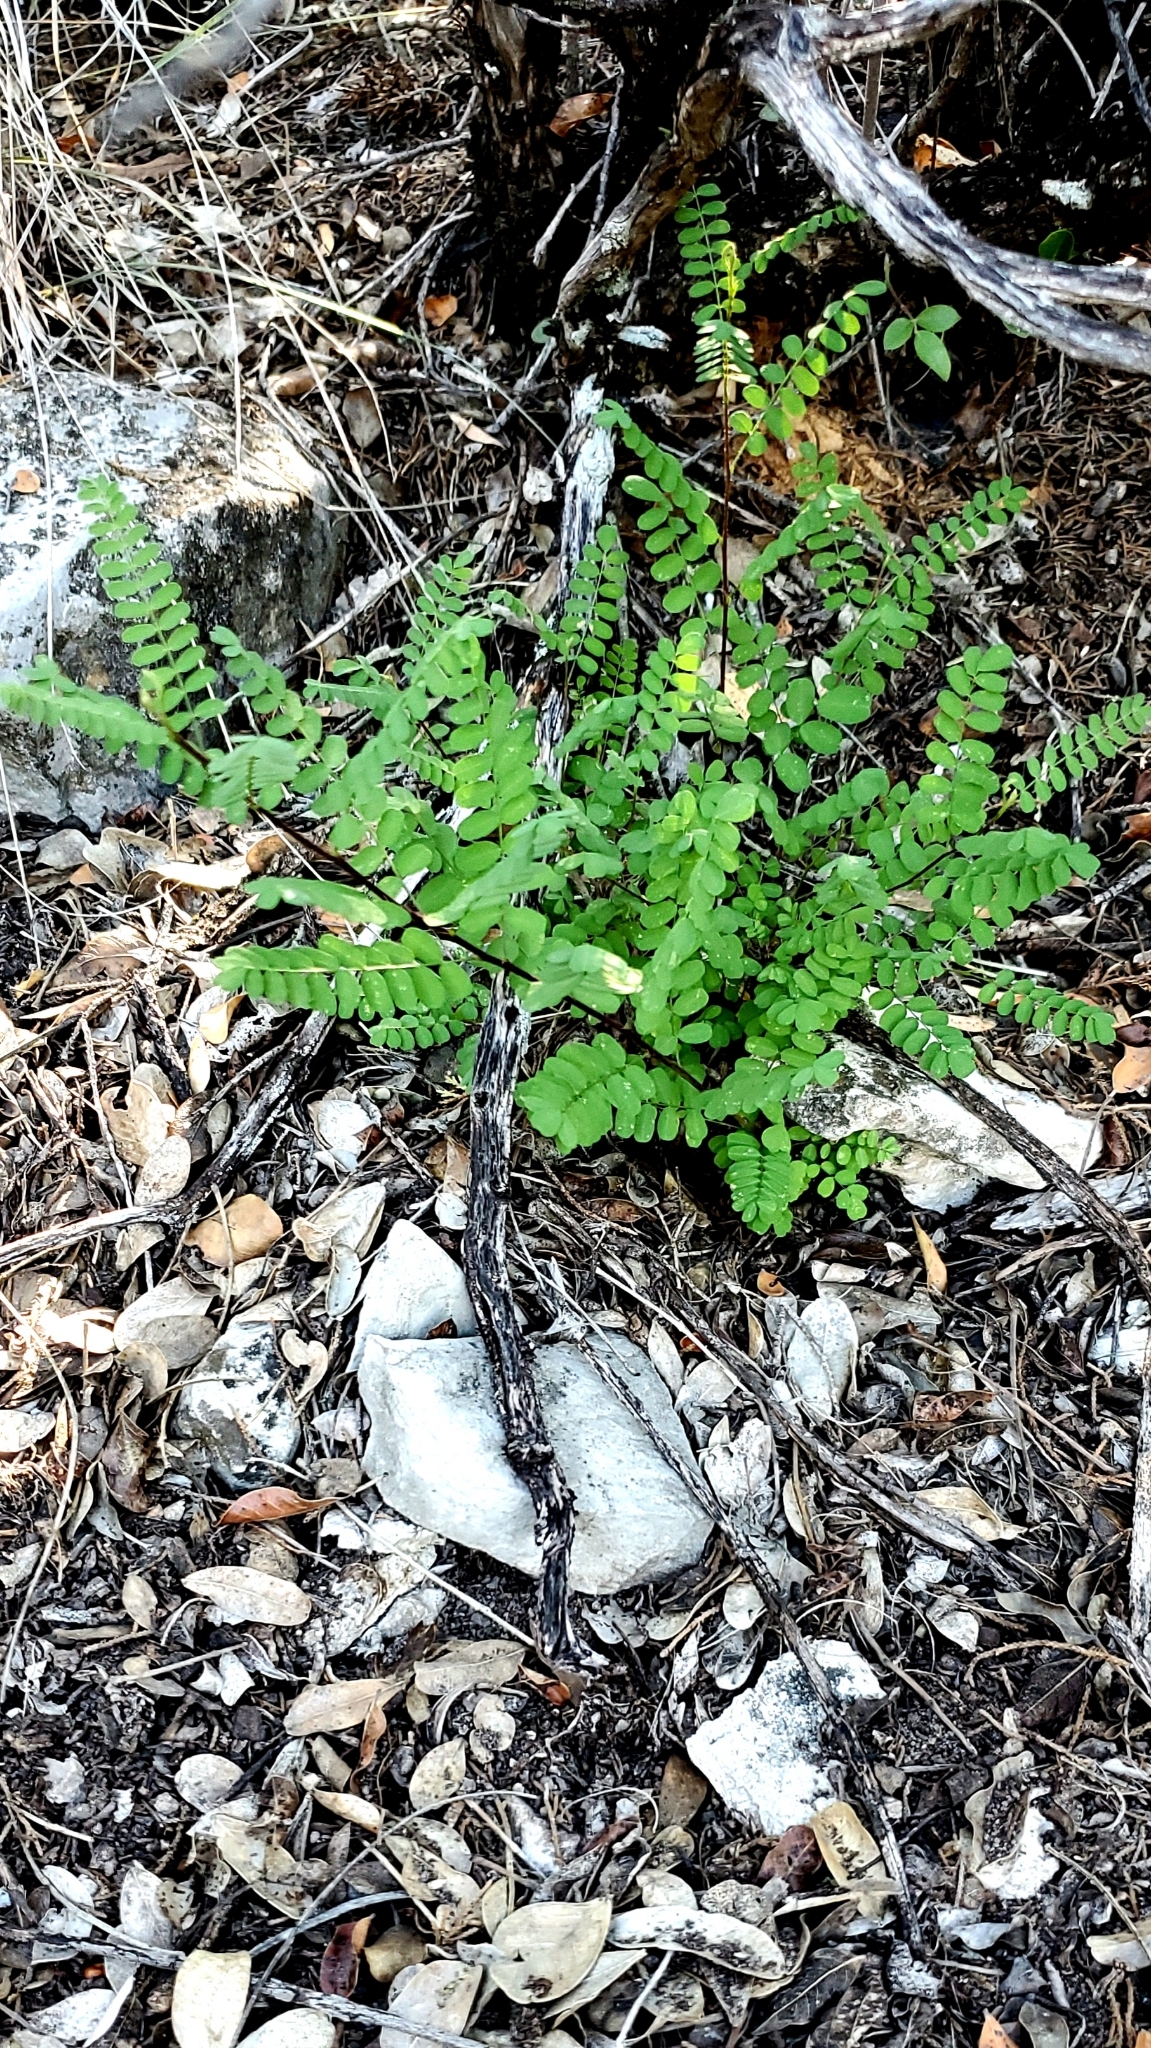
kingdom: Plantae
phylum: Tracheophyta
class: Magnoliopsida
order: Fabales
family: Fabaceae
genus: Eysenhardtia
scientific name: Eysenhardtia texana
